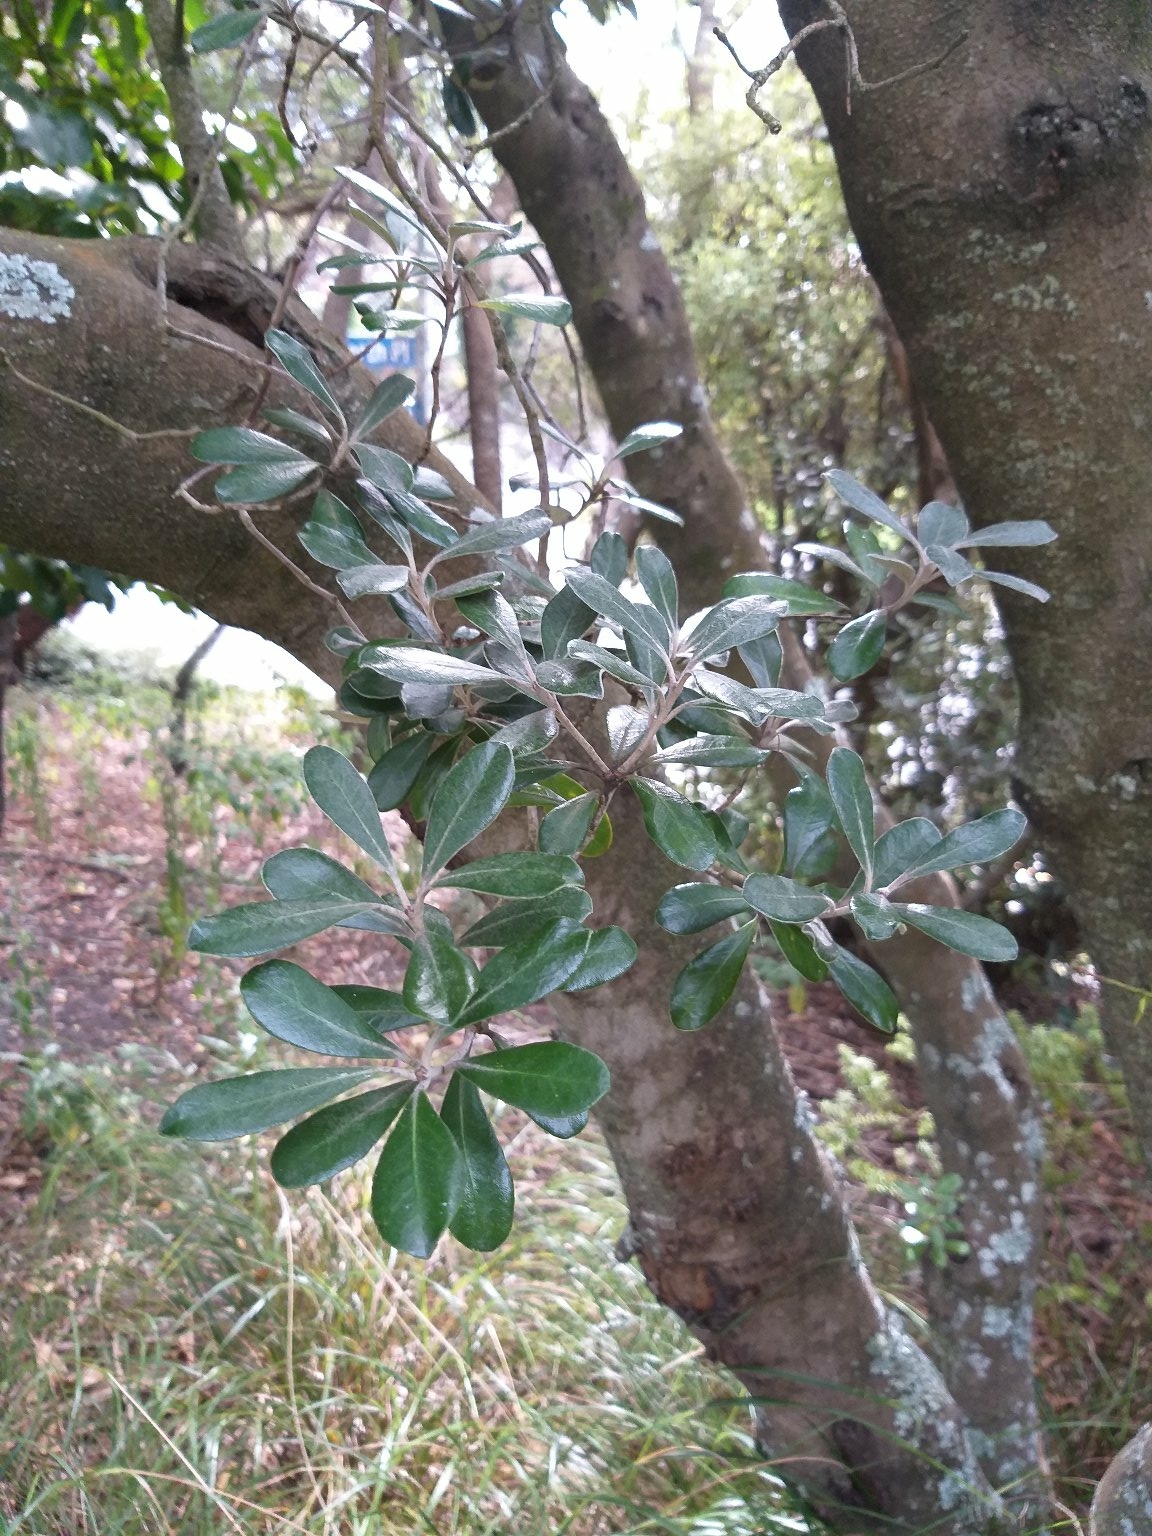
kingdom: Plantae
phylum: Tracheophyta
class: Magnoliopsida
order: Apiales
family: Pittosporaceae
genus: Pittosporum
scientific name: Pittosporum crassifolium
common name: Karo
